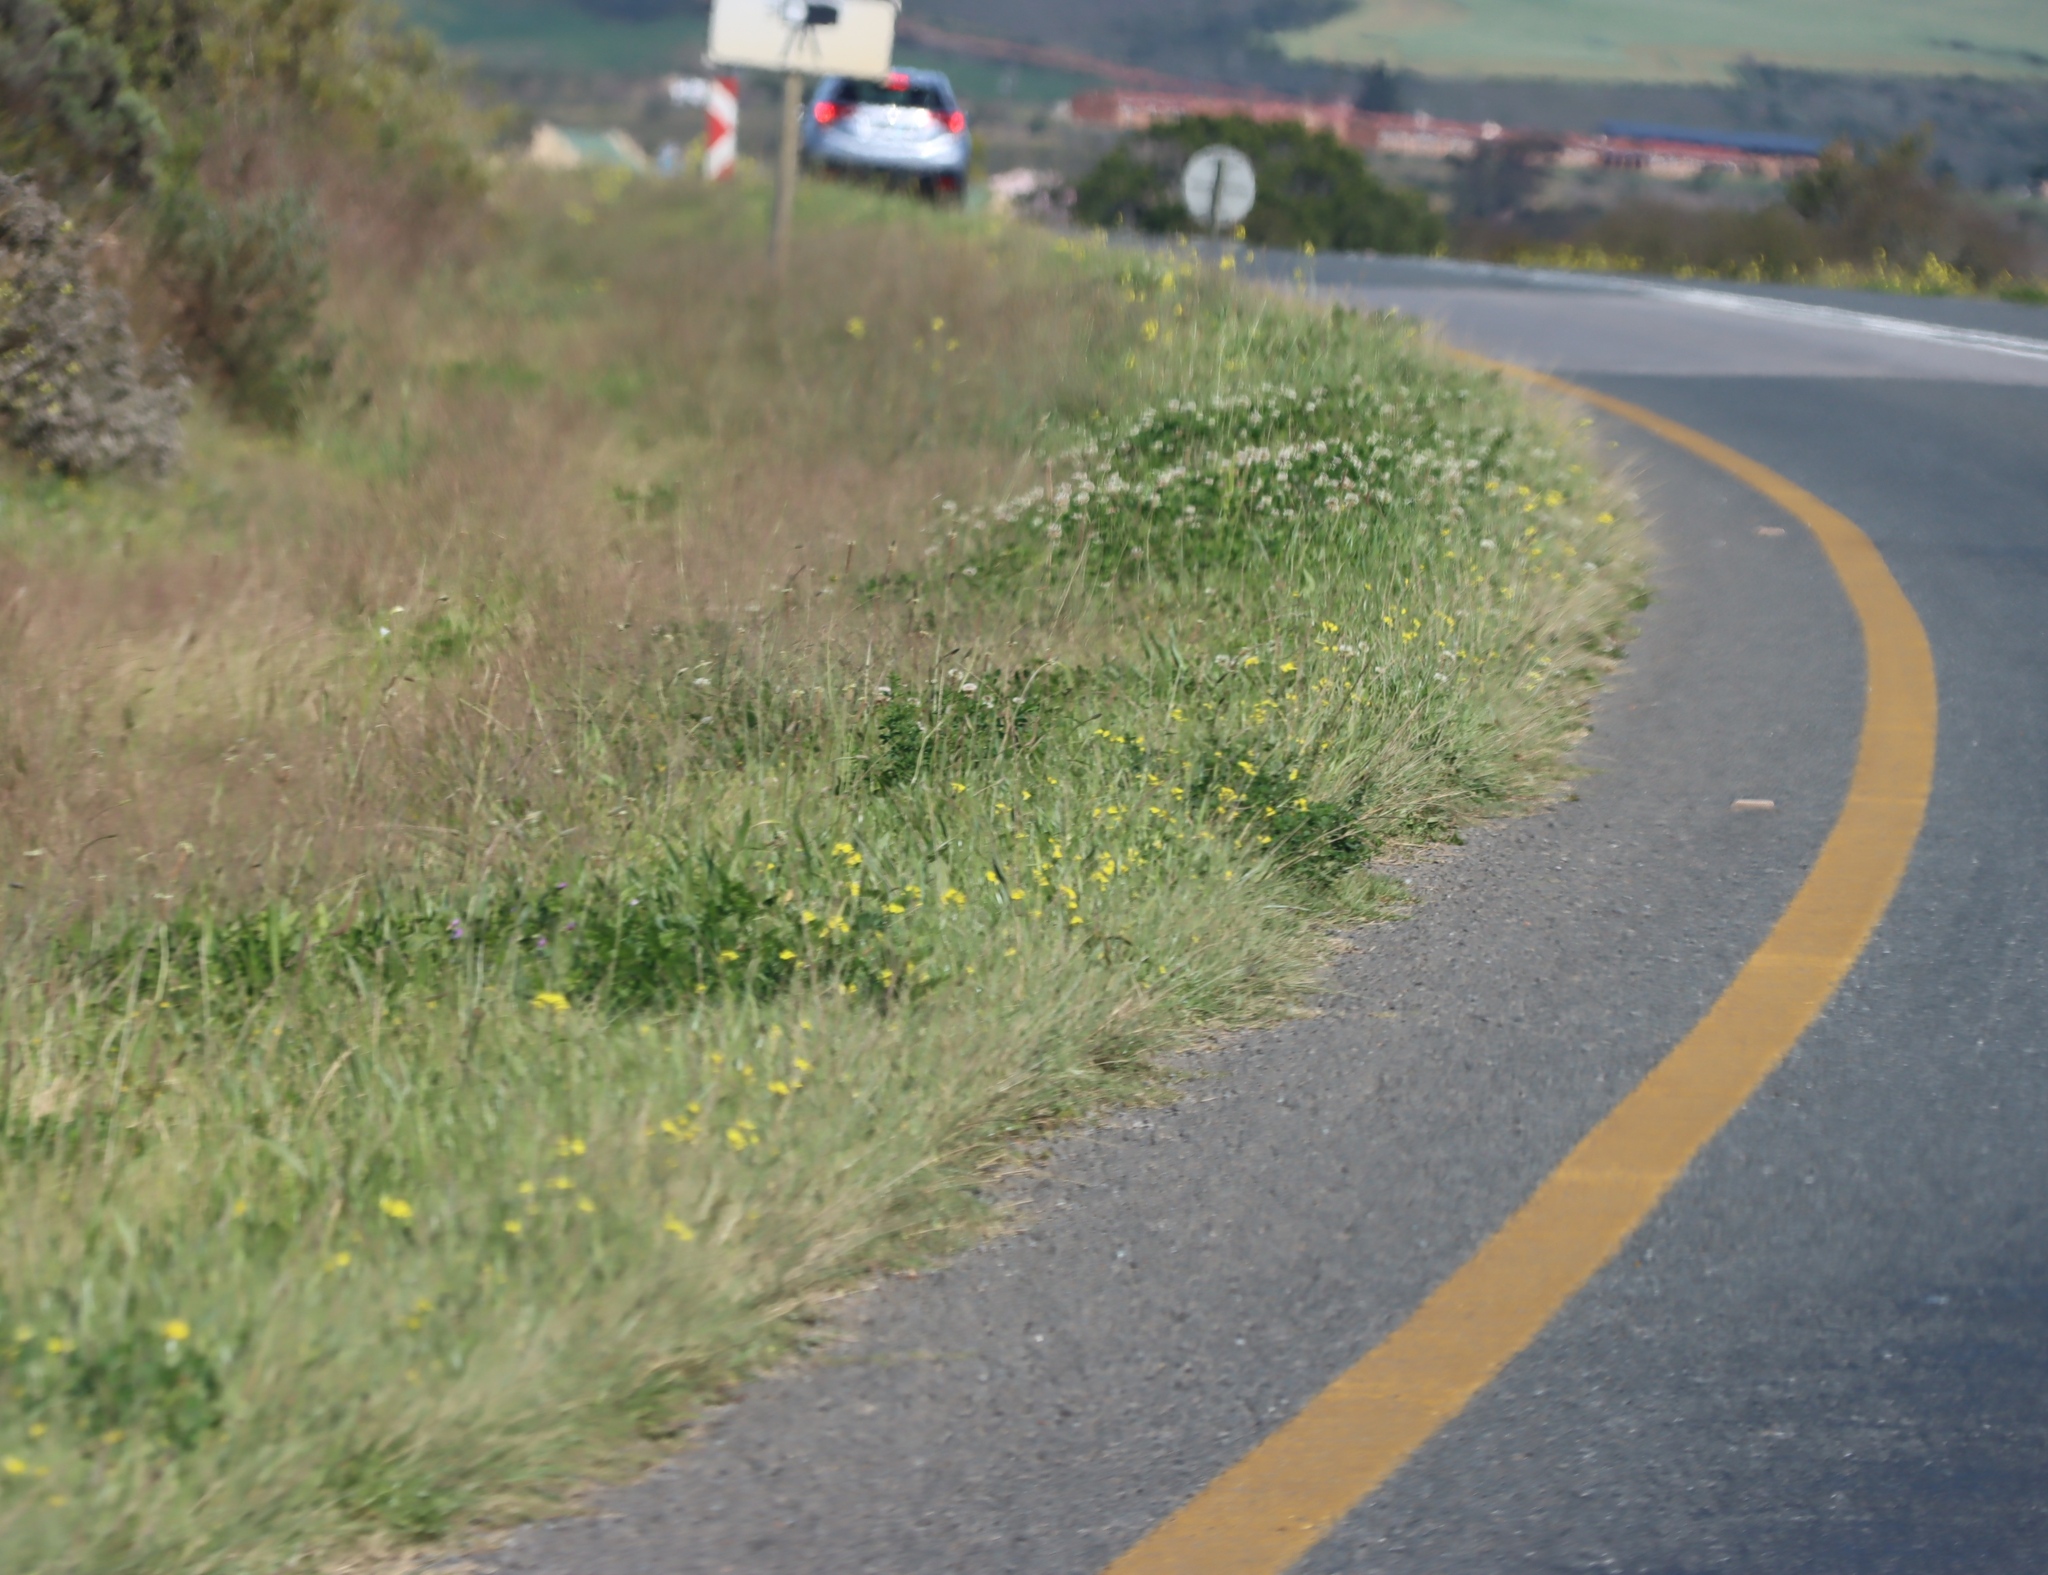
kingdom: Plantae
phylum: Tracheophyta
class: Magnoliopsida
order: Oxalidales
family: Oxalidaceae
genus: Oxalis
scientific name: Oxalis pes-caprae
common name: Bermuda-buttercup
